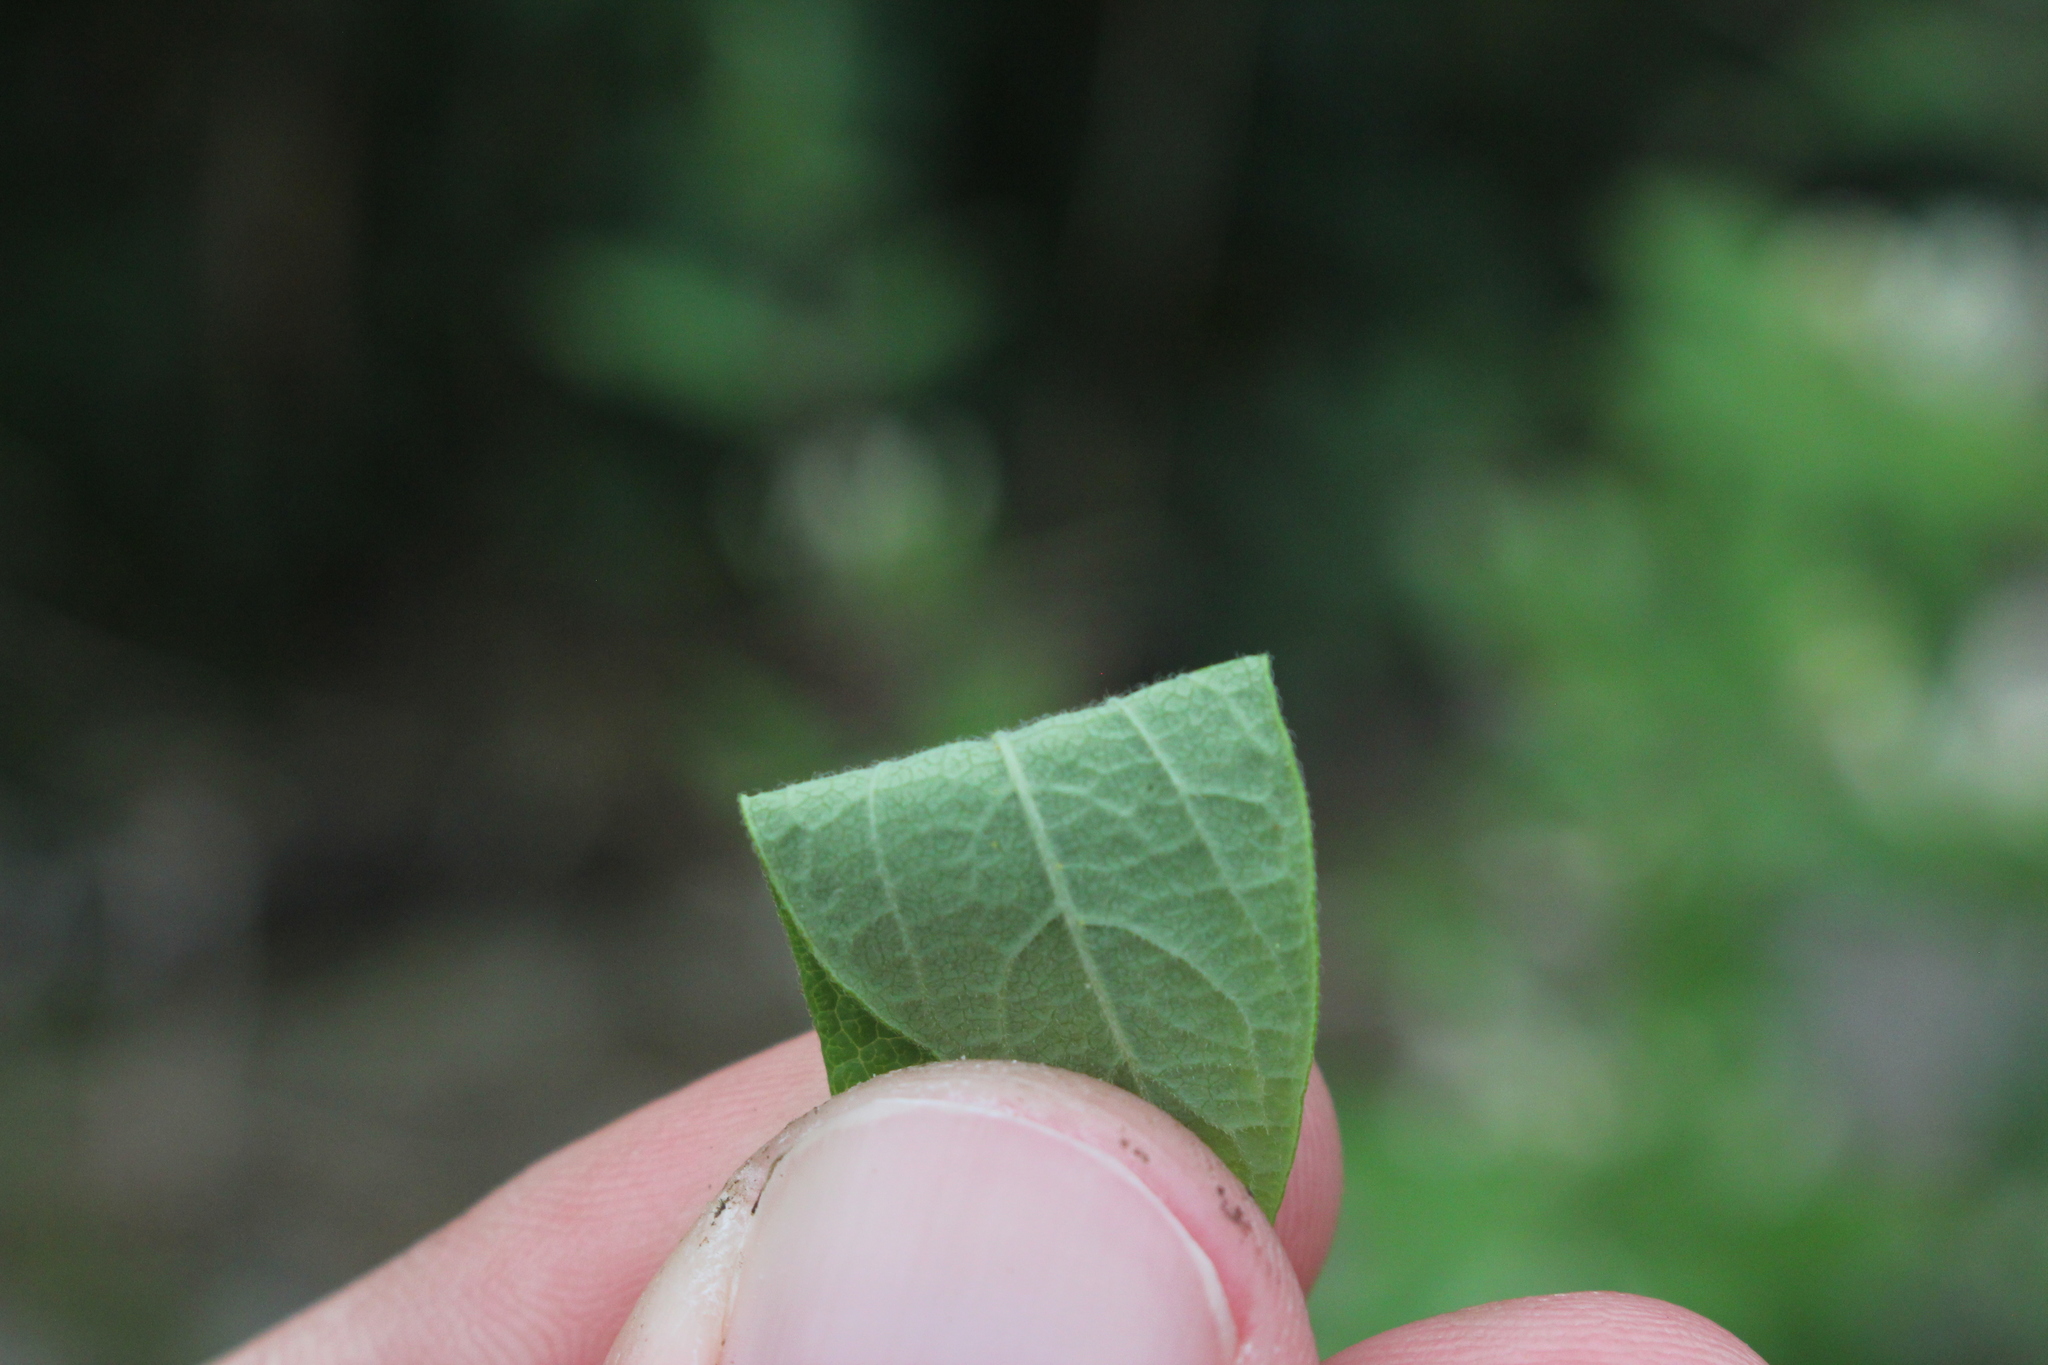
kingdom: Plantae
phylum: Tracheophyta
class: Magnoliopsida
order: Dipsacales
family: Caprifoliaceae
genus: Lonicera
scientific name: Lonicera morrowii
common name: Morrow's honeysuckle
